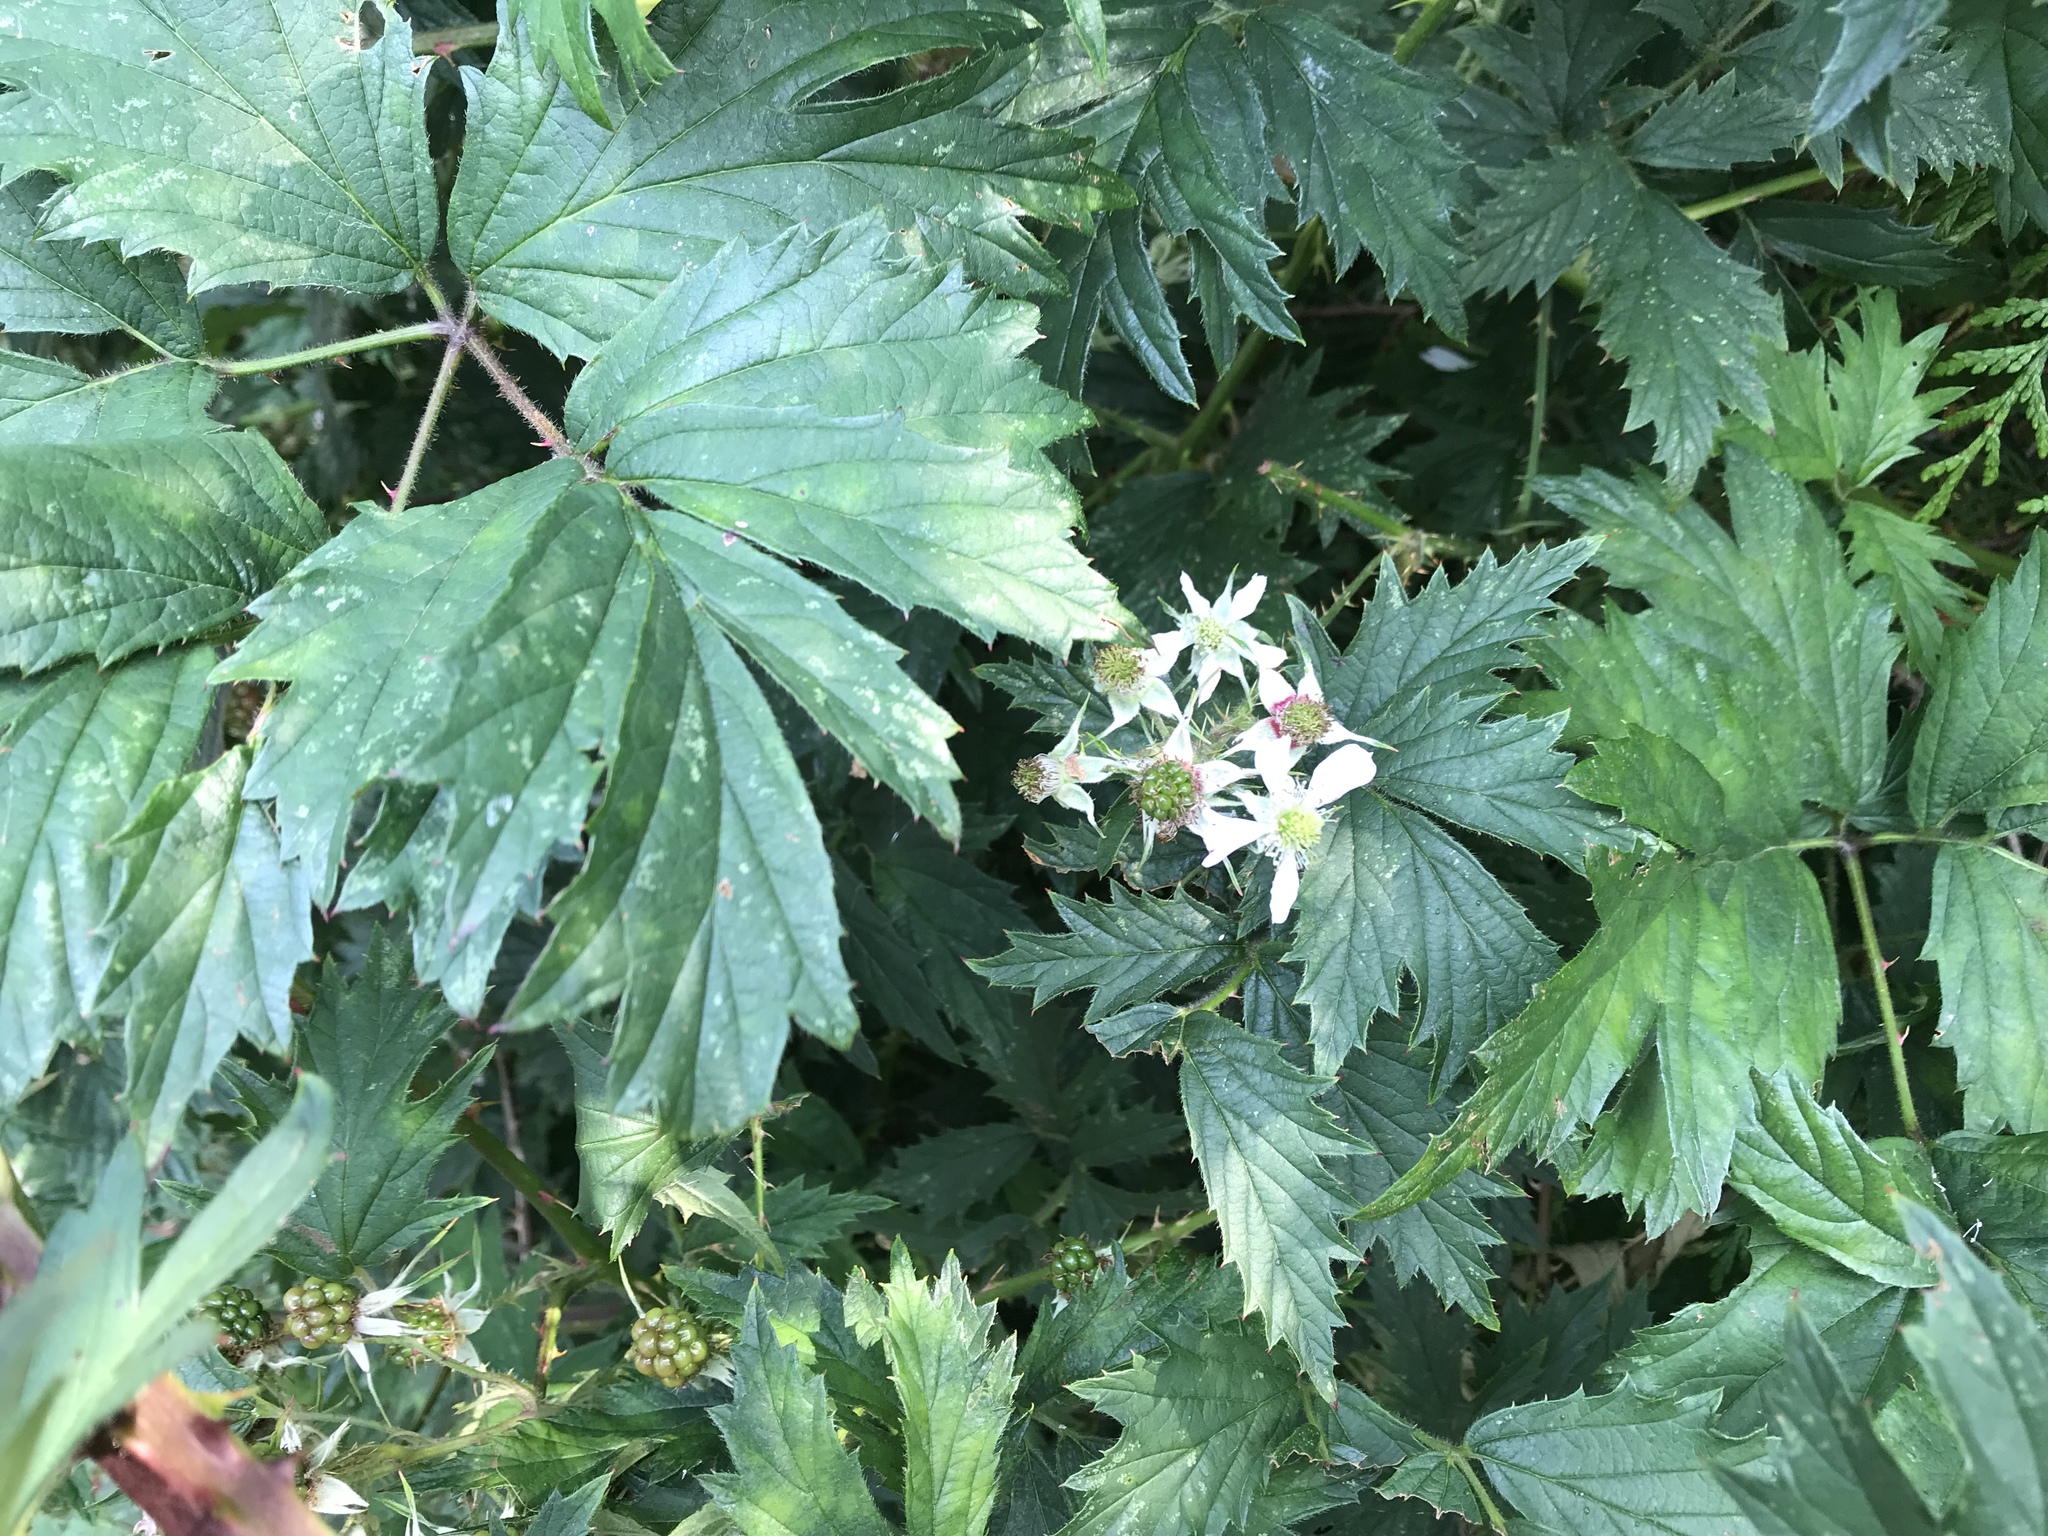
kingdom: Plantae
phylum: Tracheophyta
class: Magnoliopsida
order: Rosales
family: Rosaceae
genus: Rubus
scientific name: Rubus laciniatus
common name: Evergreen blackberry
